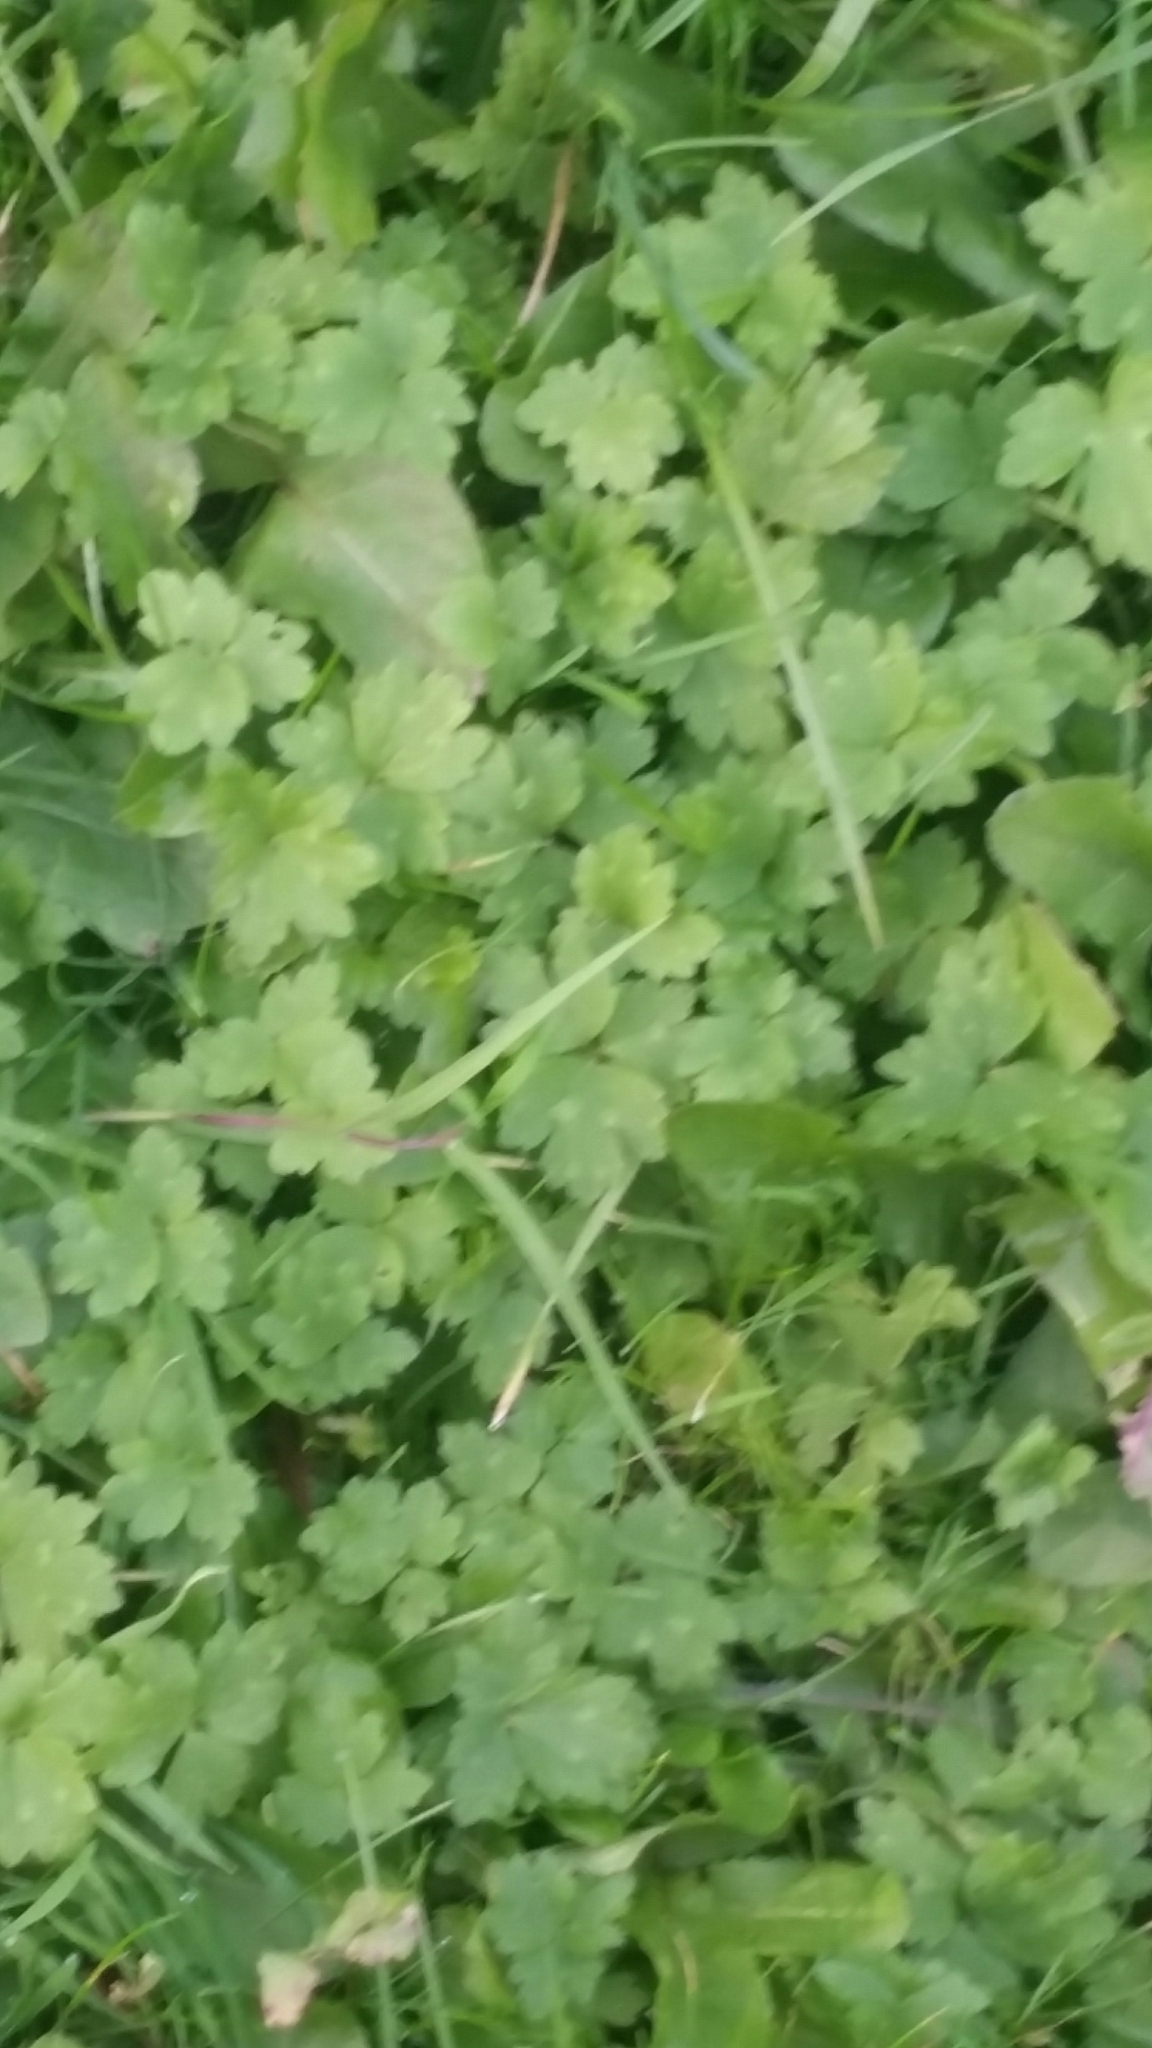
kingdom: Plantae
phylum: Tracheophyta
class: Magnoliopsida
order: Ranunculales
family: Ranunculaceae
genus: Ranunculus
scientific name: Ranunculus repens
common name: Creeping buttercup
